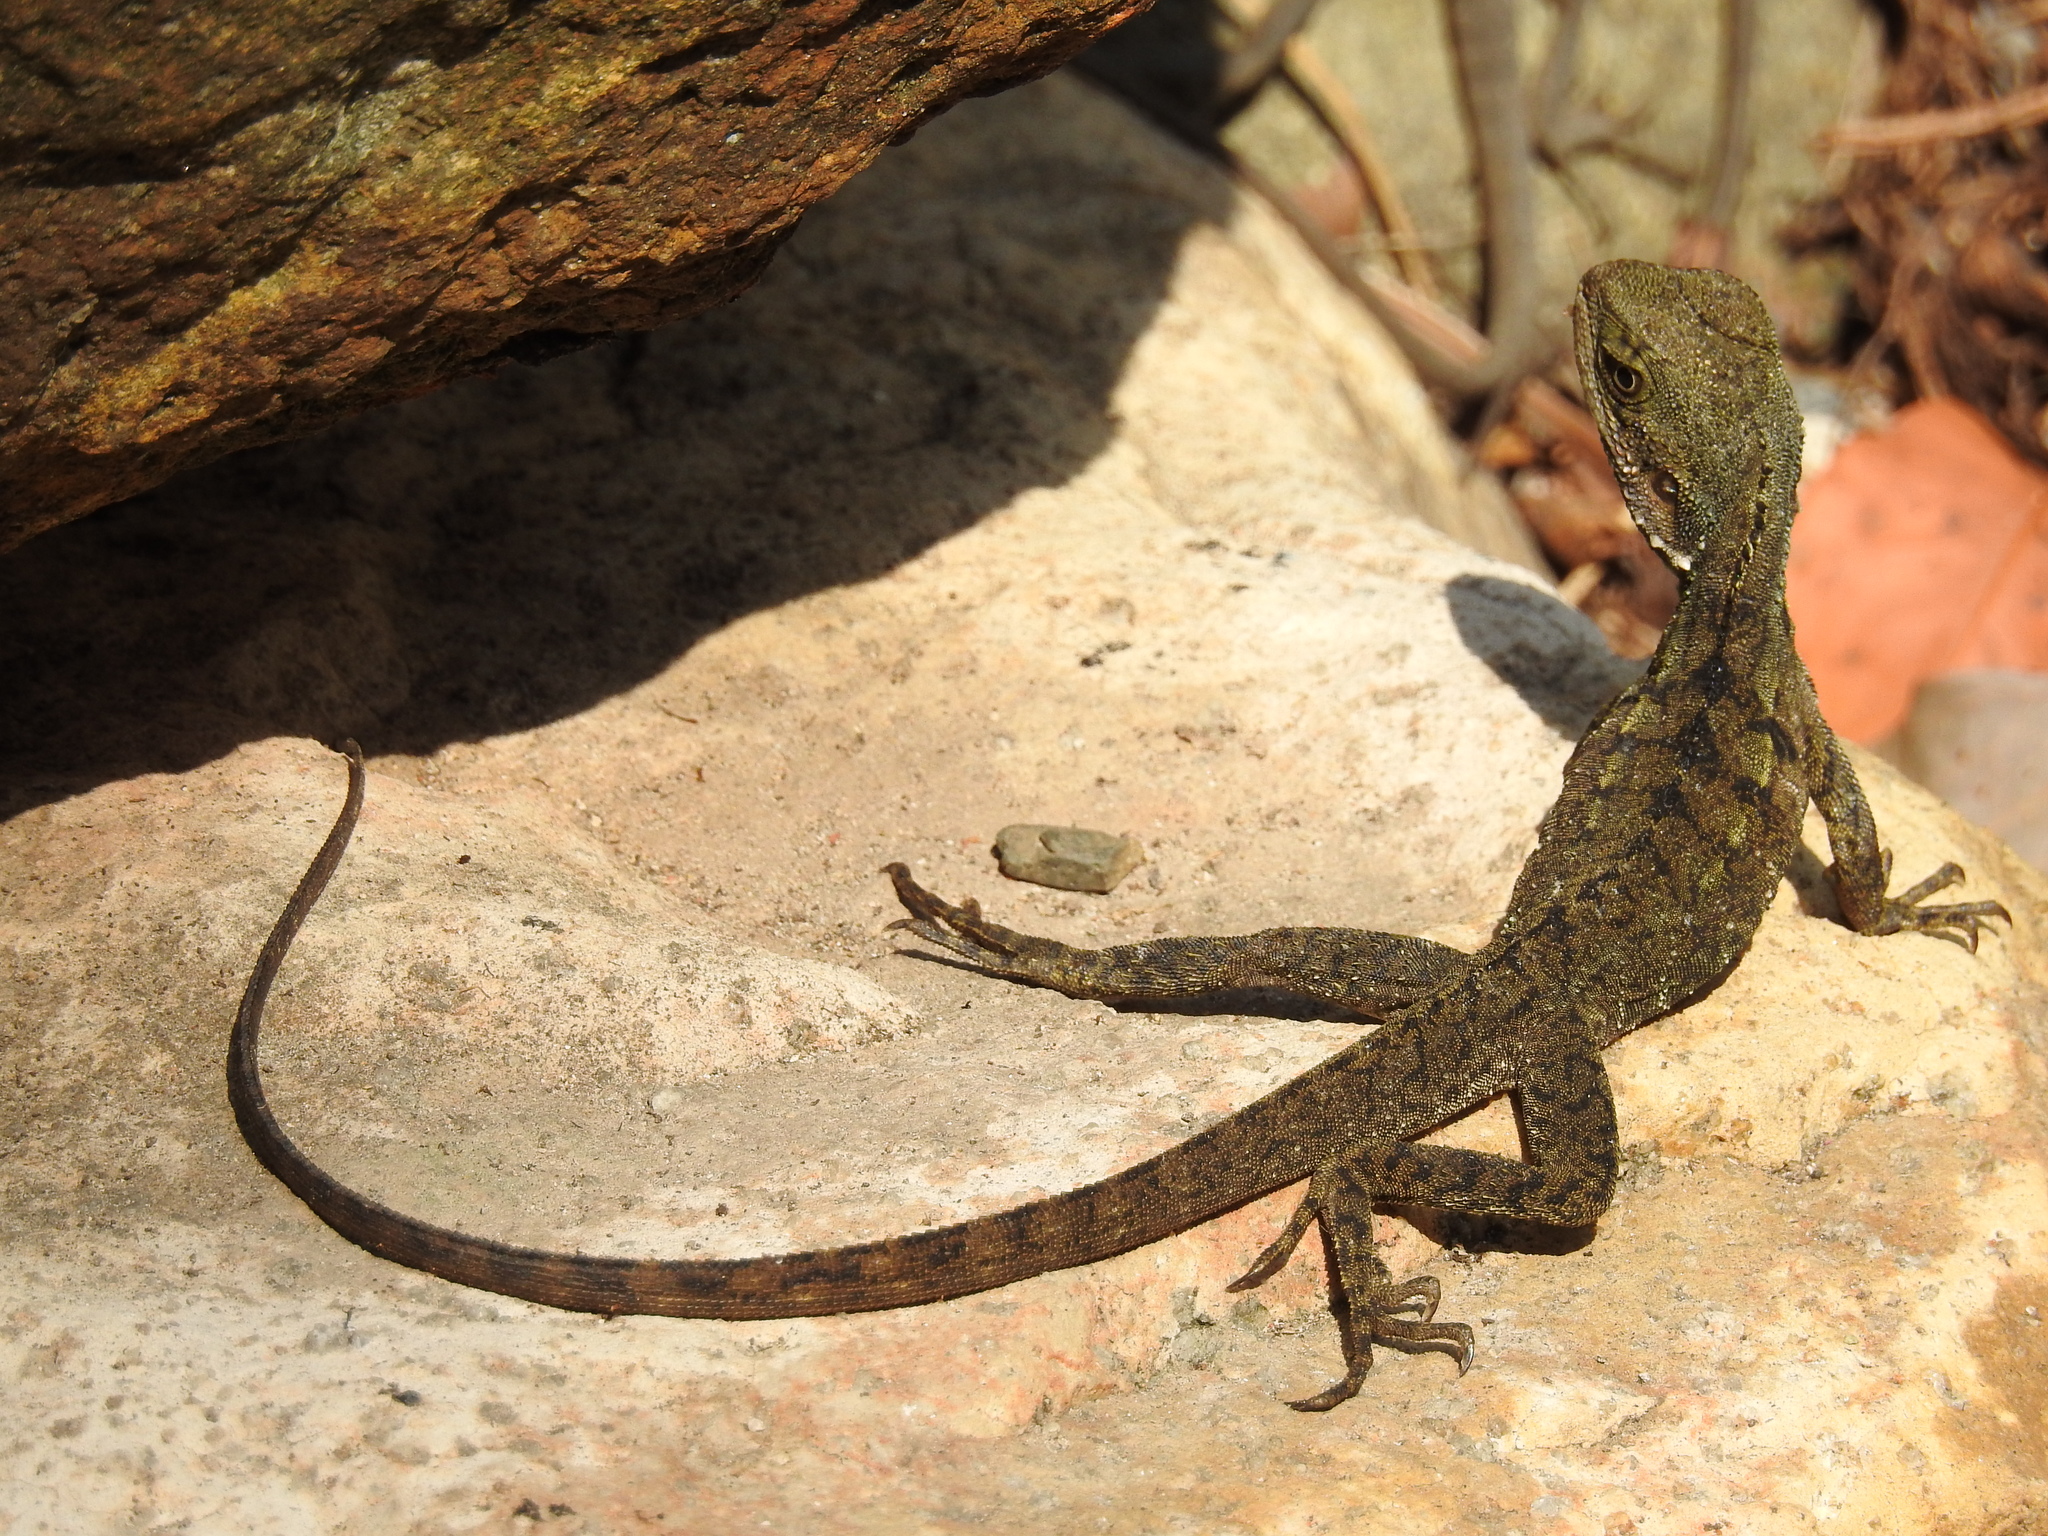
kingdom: Animalia
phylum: Chordata
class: Squamata
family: Agamidae
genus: Intellagama
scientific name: Intellagama lesueurii
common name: Eastern water dragon
